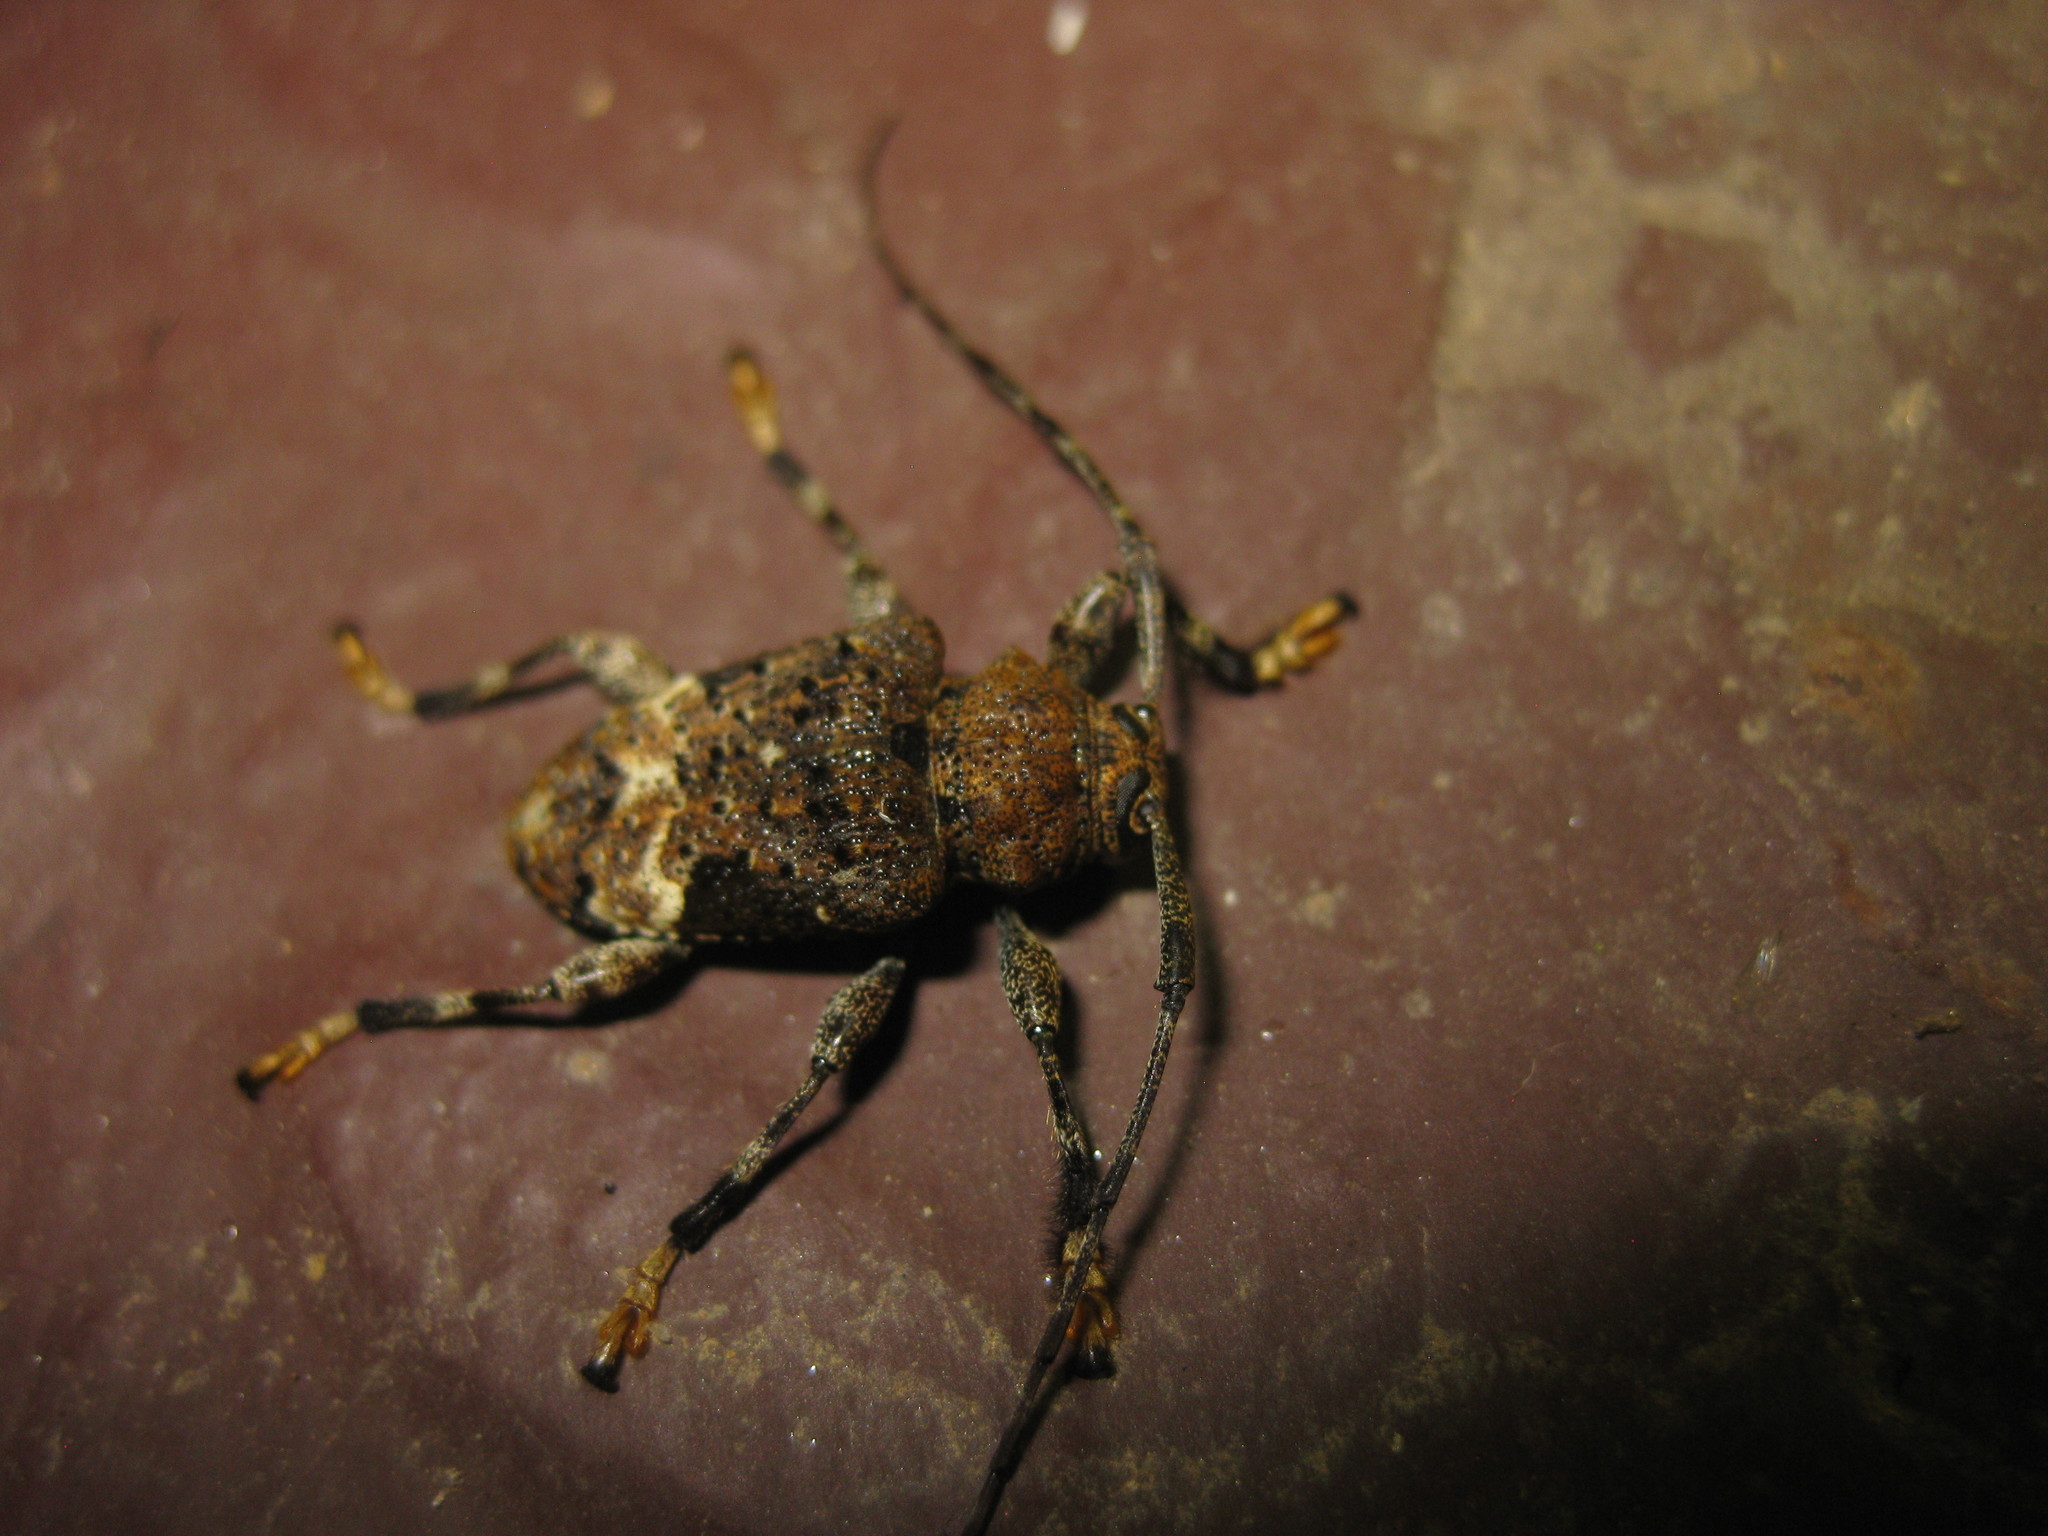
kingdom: Animalia
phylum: Arthropoda
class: Insecta
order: Coleoptera
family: Cerambycidae
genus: Lagocheirus
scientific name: Lagocheirus plantaris
